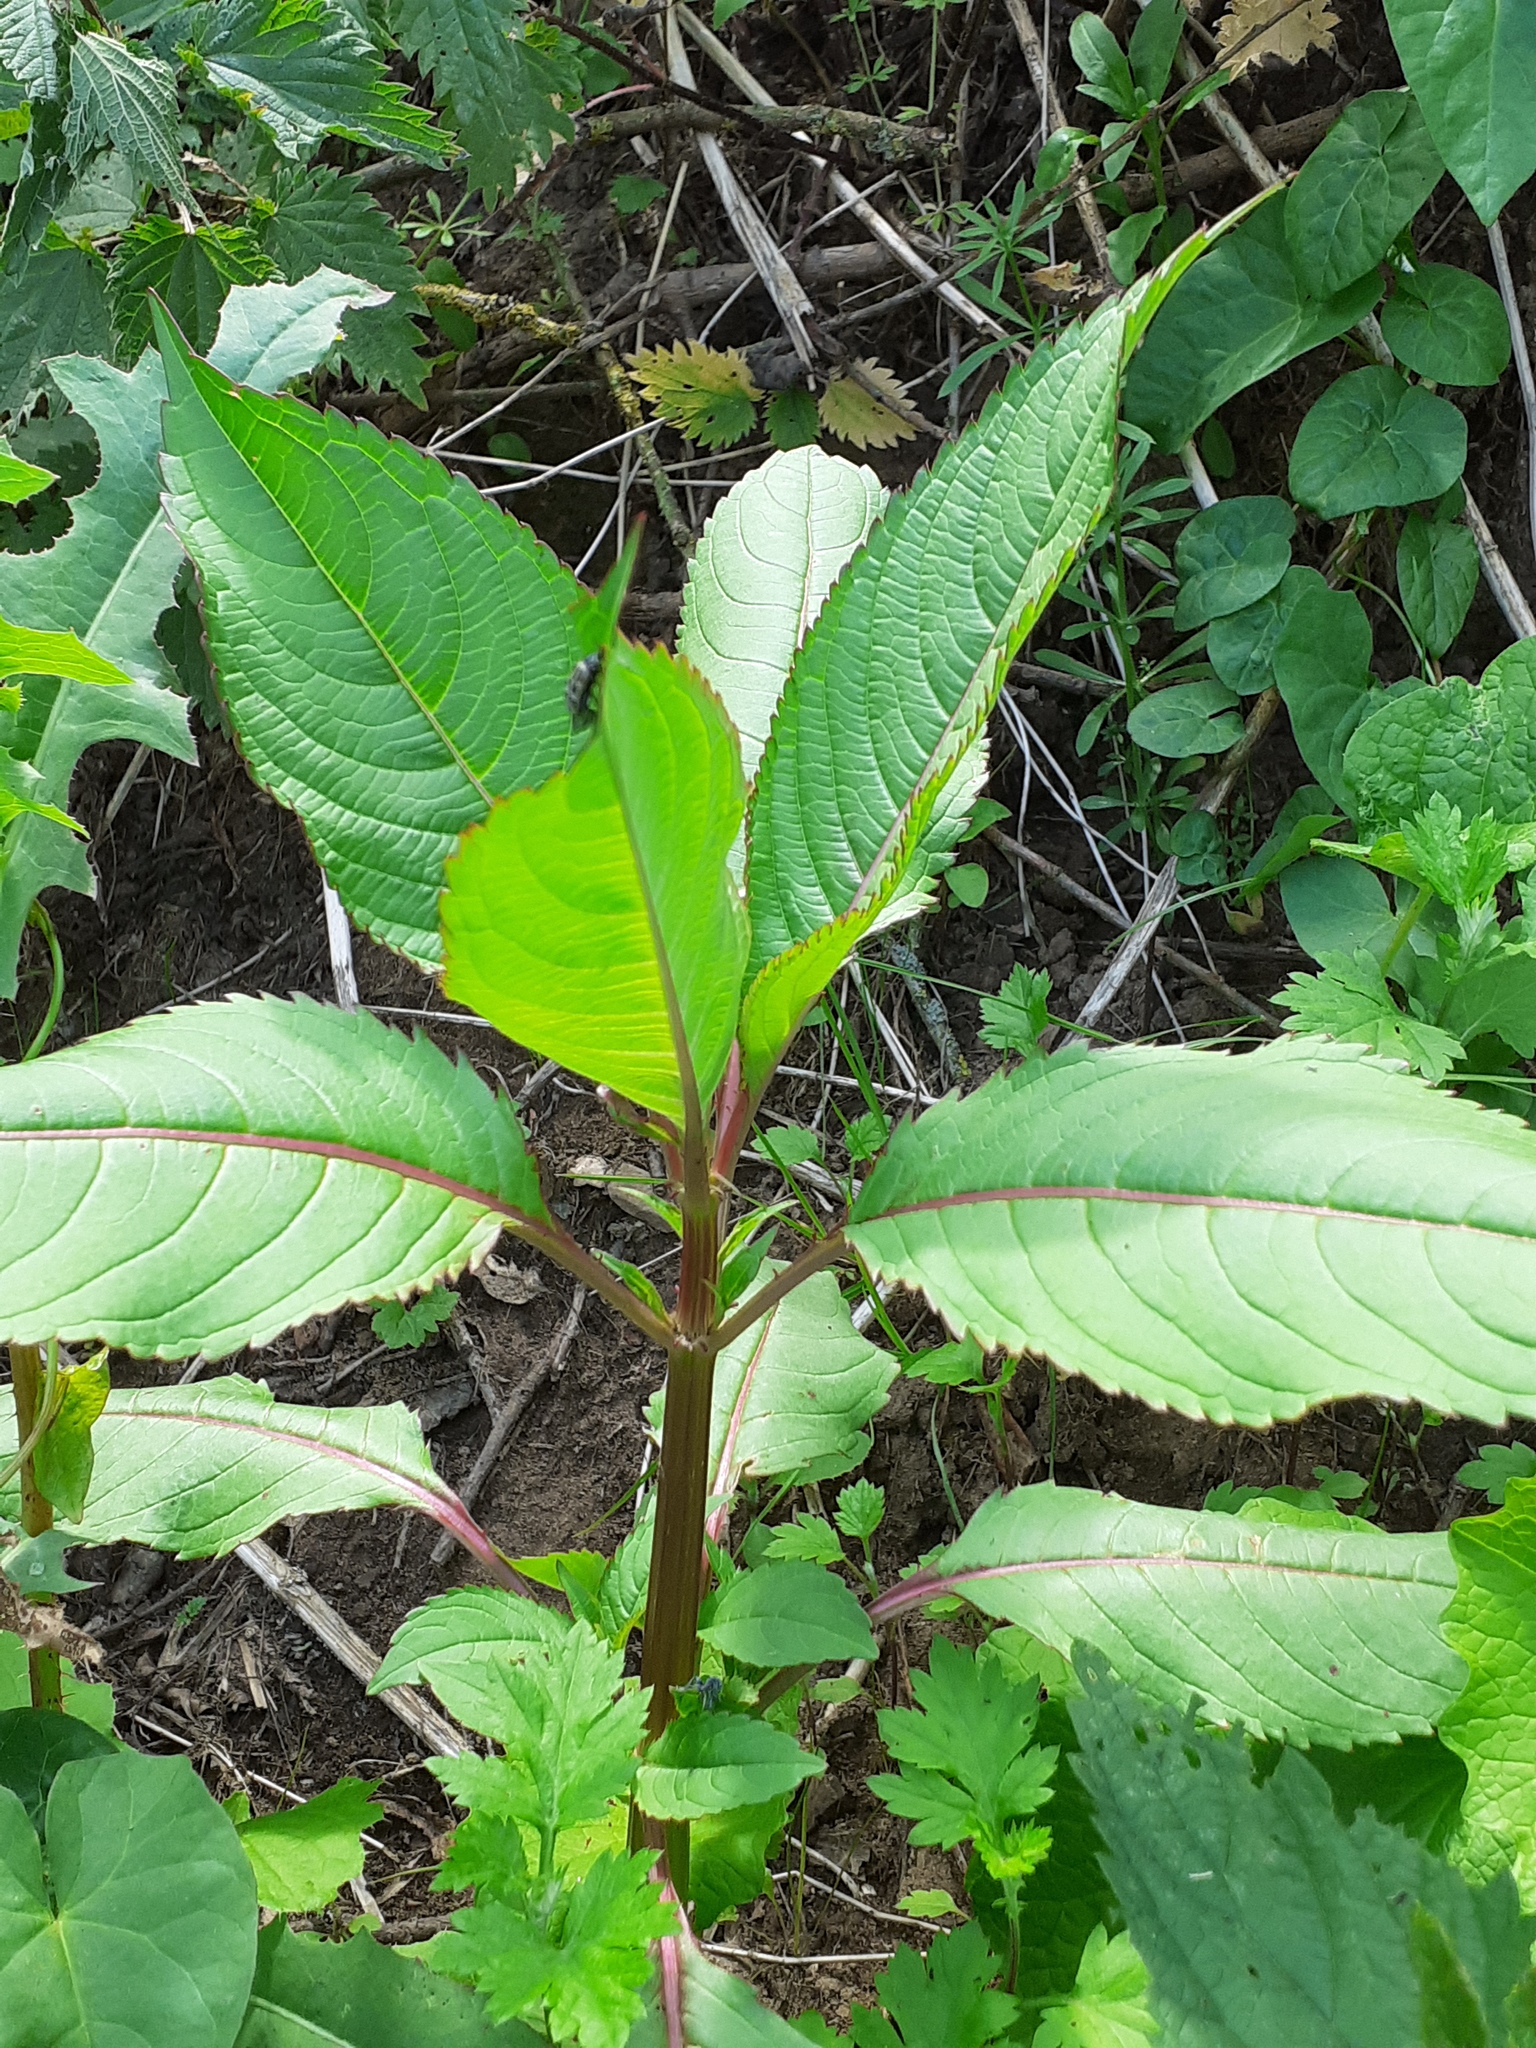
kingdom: Plantae
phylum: Tracheophyta
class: Magnoliopsida
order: Ericales
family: Balsaminaceae
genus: Impatiens
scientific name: Impatiens glandulifera
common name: Himalayan balsam
